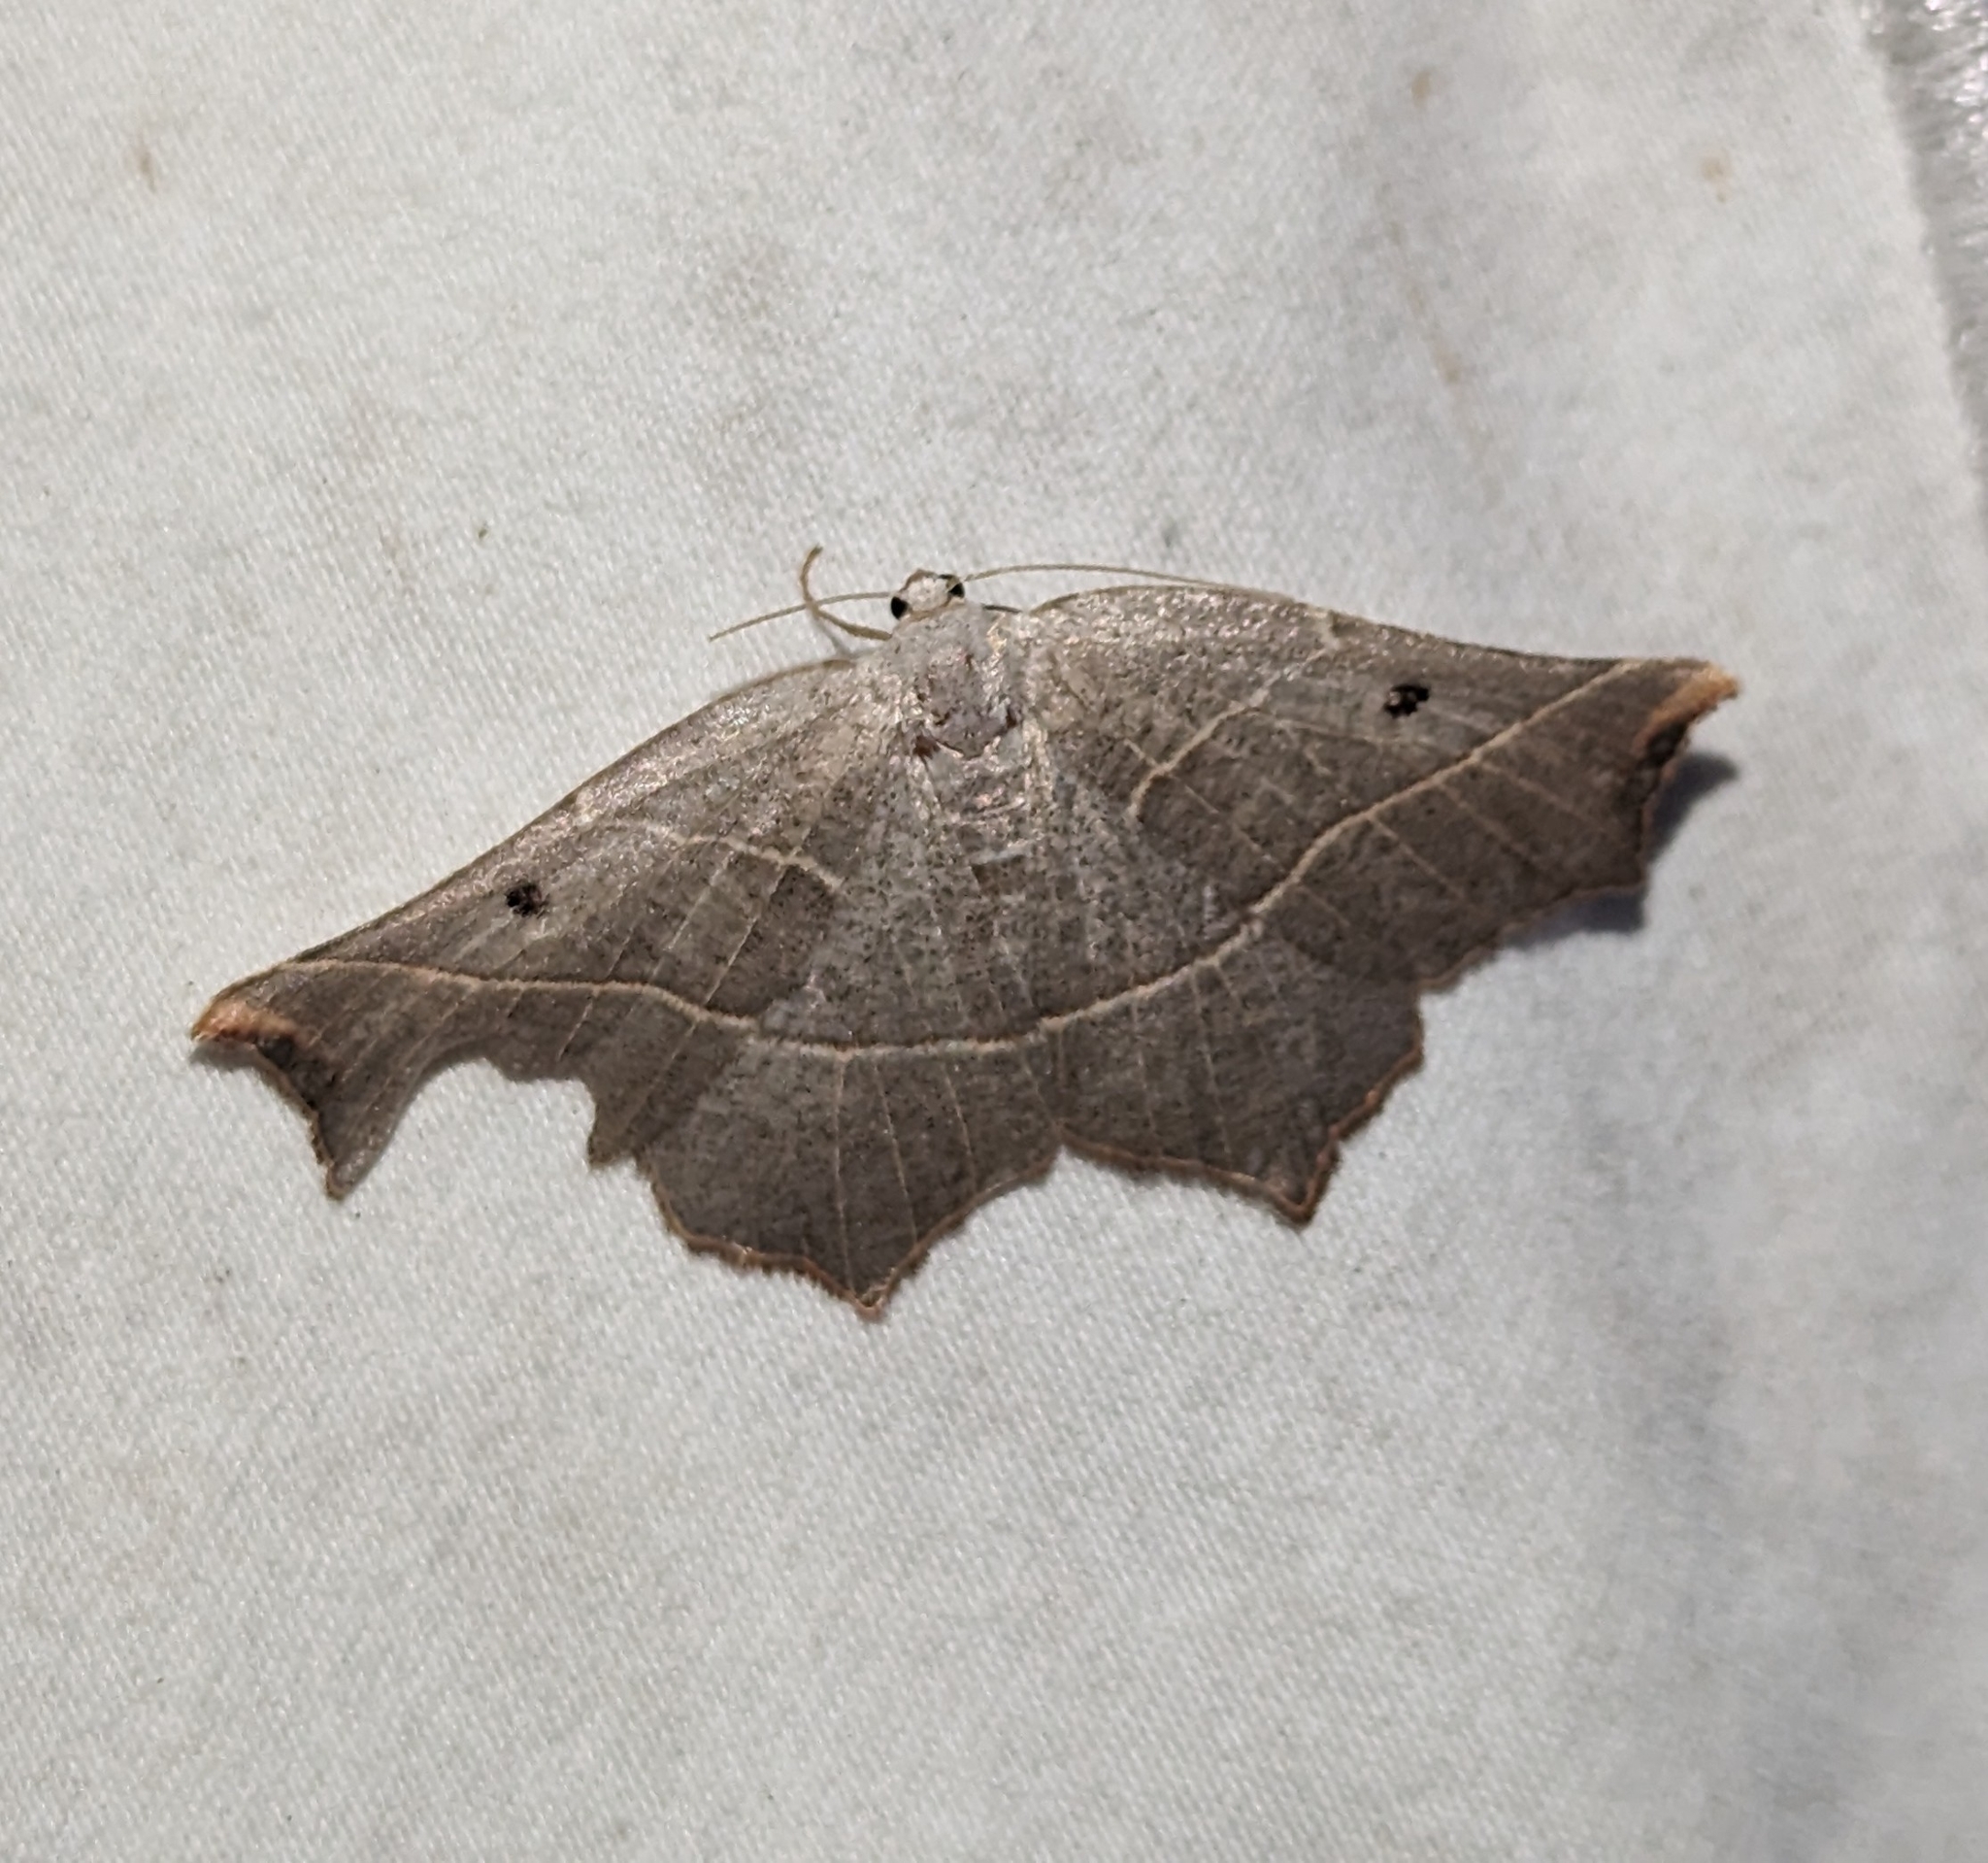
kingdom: Animalia
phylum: Arthropoda
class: Insecta
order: Lepidoptera
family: Geometridae
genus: Metanema
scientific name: Metanema inatomaria
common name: Pale metanema
